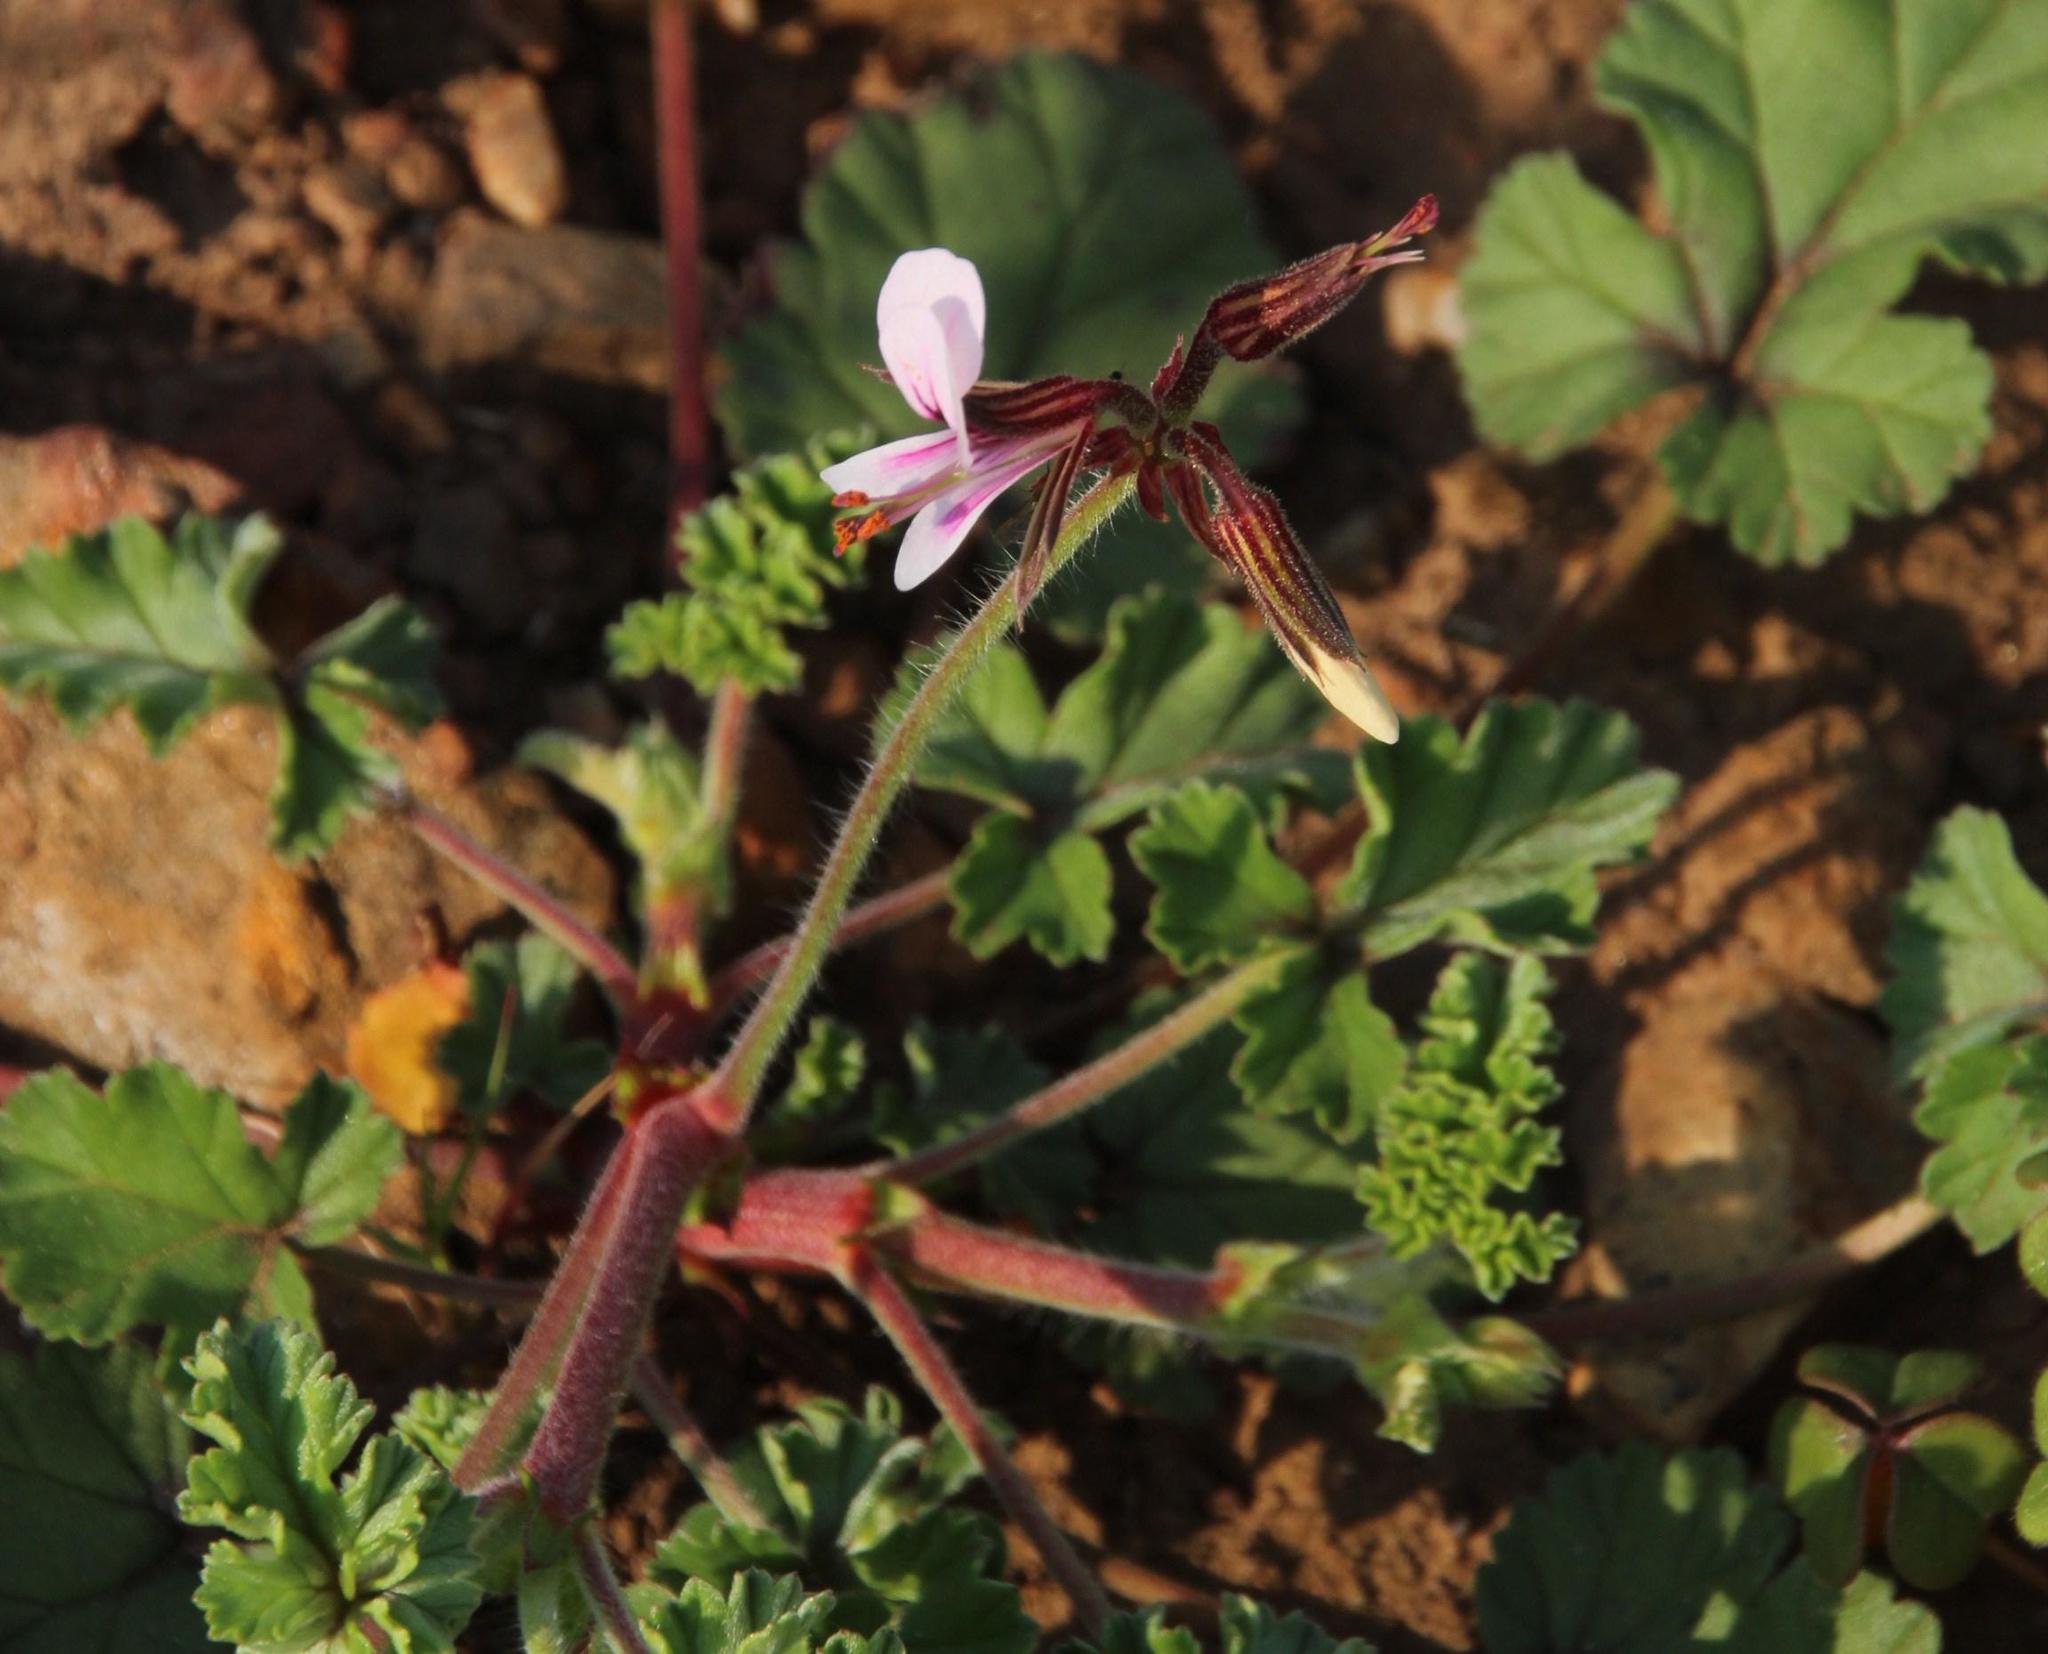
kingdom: Plantae
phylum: Tracheophyta
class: Magnoliopsida
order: Geraniales
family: Geraniaceae
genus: Pelargonium
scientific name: Pelargonium candicans
